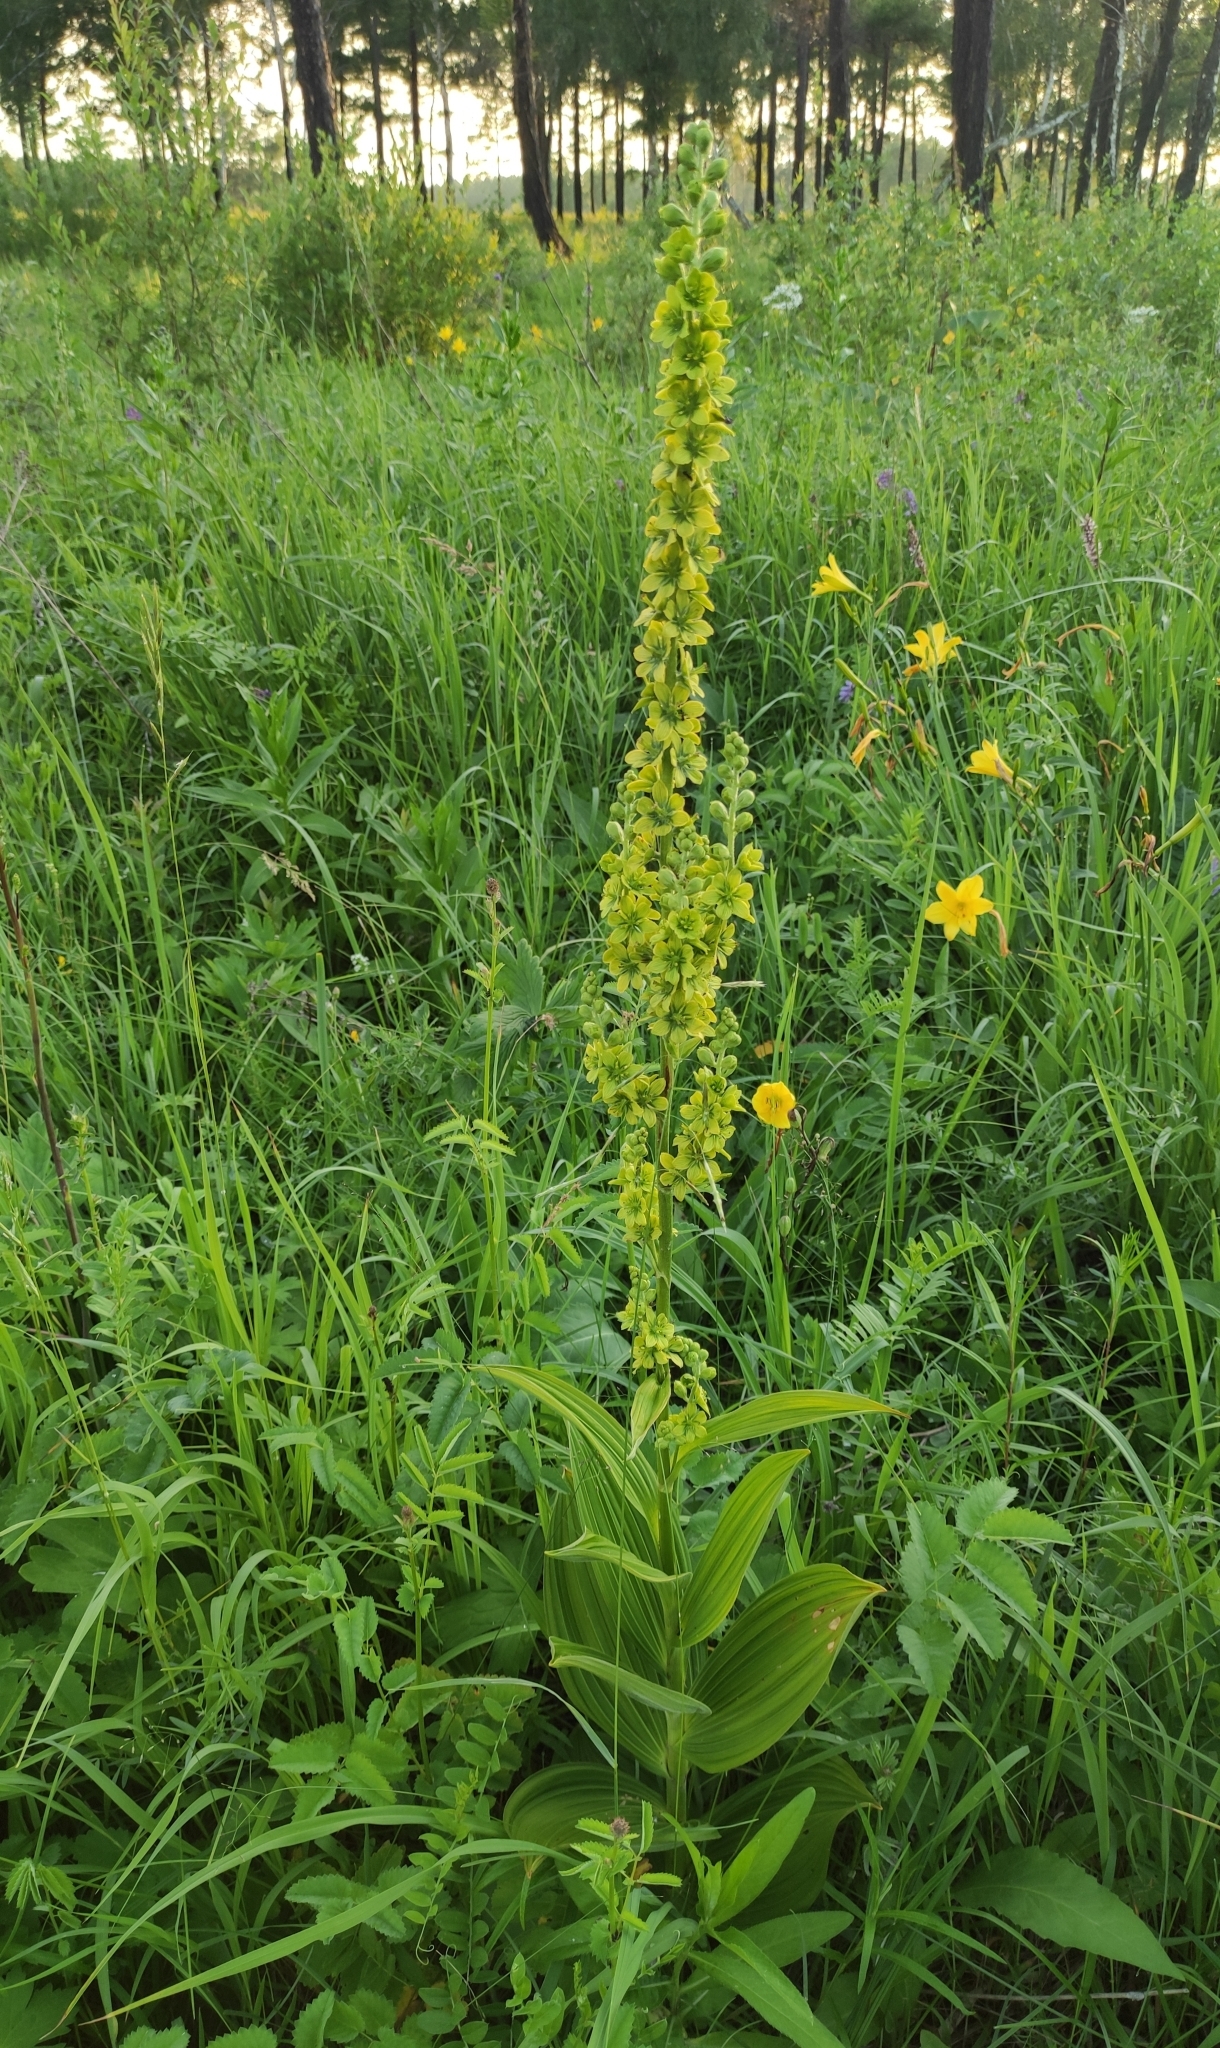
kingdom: Plantae
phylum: Tracheophyta
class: Liliopsida
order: Liliales
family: Melanthiaceae
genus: Veratrum
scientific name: Veratrum lobelianum
